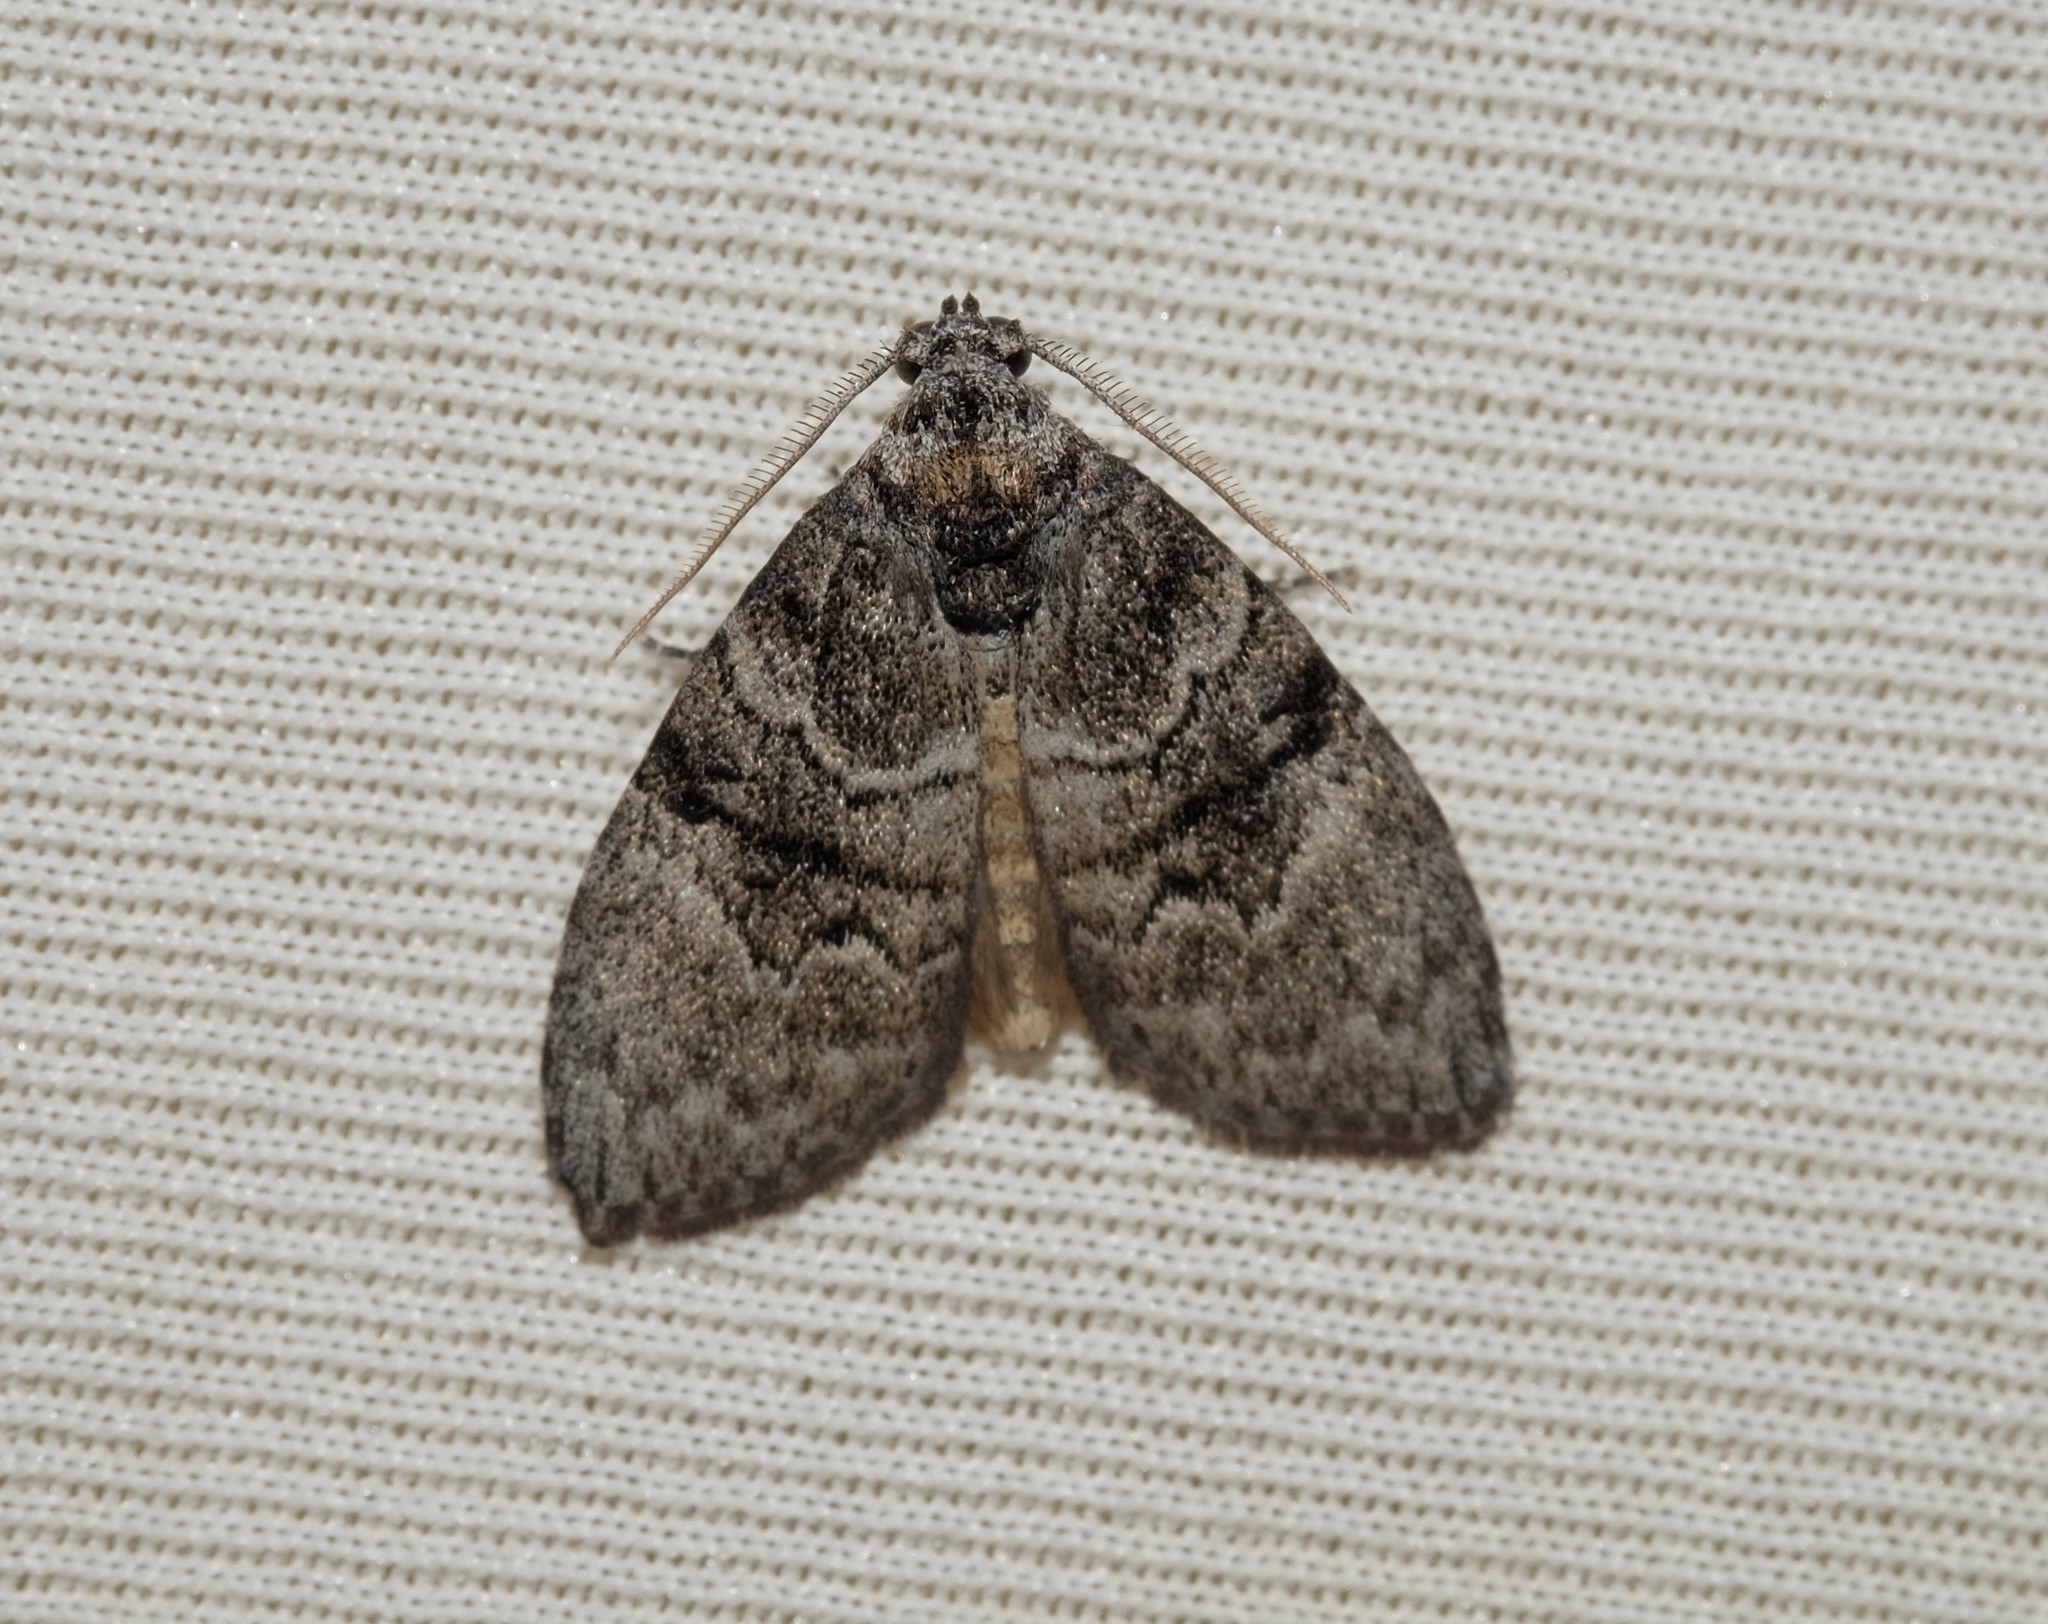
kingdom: Animalia
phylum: Arthropoda
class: Insecta
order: Lepidoptera
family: Nolidae
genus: Uraba
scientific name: Uraba lugens
